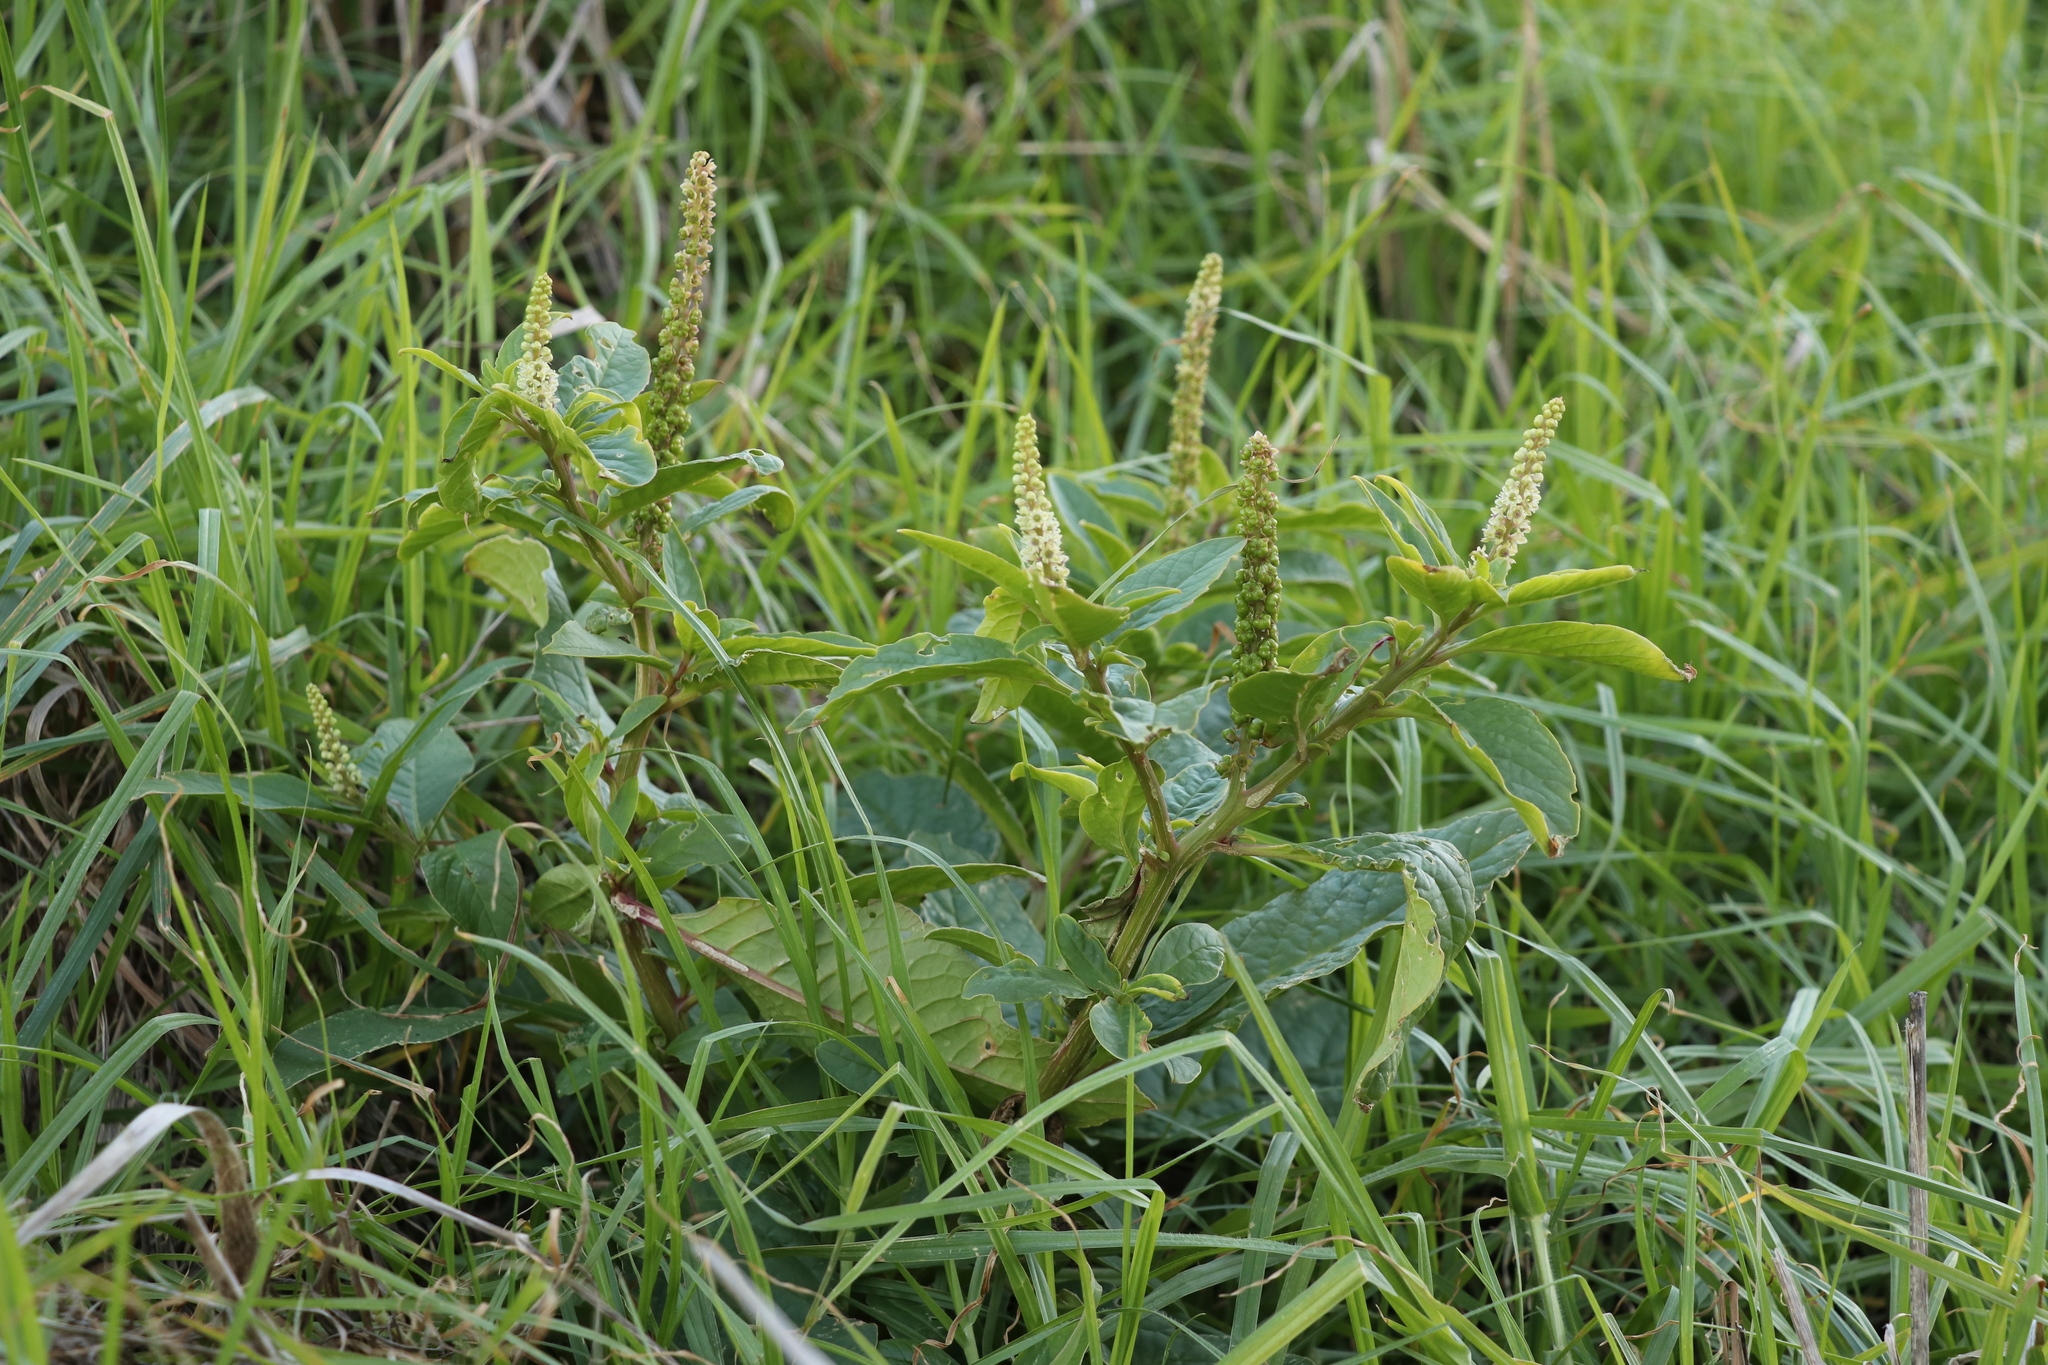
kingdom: Plantae
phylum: Tracheophyta
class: Magnoliopsida
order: Caryophyllales
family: Phytolaccaceae
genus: Phytolacca
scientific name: Phytolacca icosandra
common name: Button pokeweed
